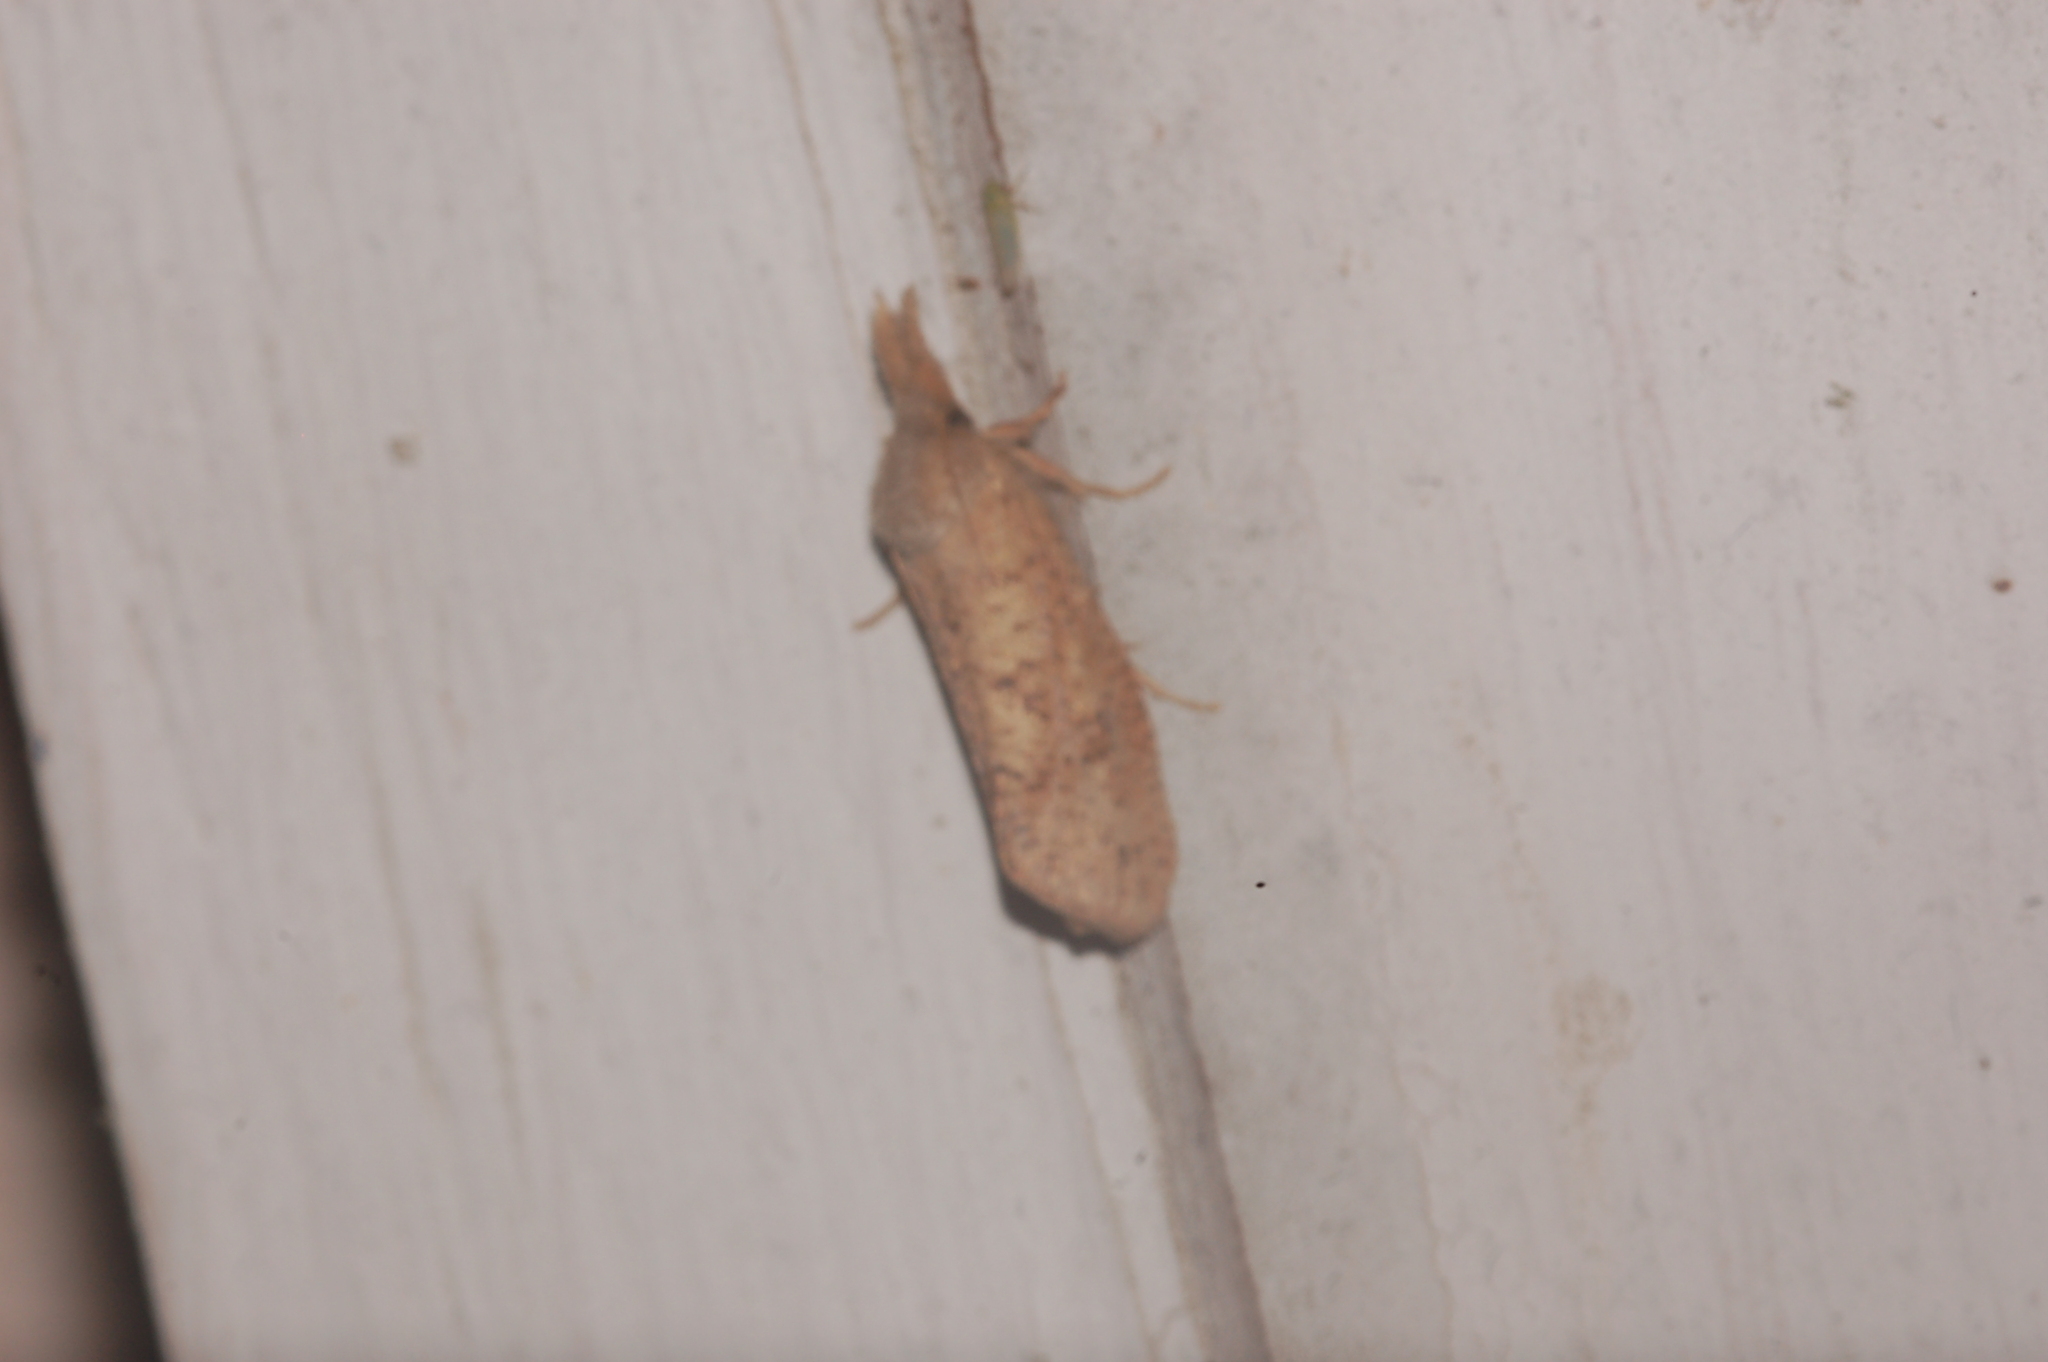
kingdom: Animalia
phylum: Arthropoda
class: Insecta
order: Lepidoptera
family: Tineidae
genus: Acrolophus
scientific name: Acrolophus plumifrontella
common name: Eastern grass tubeworm moth
